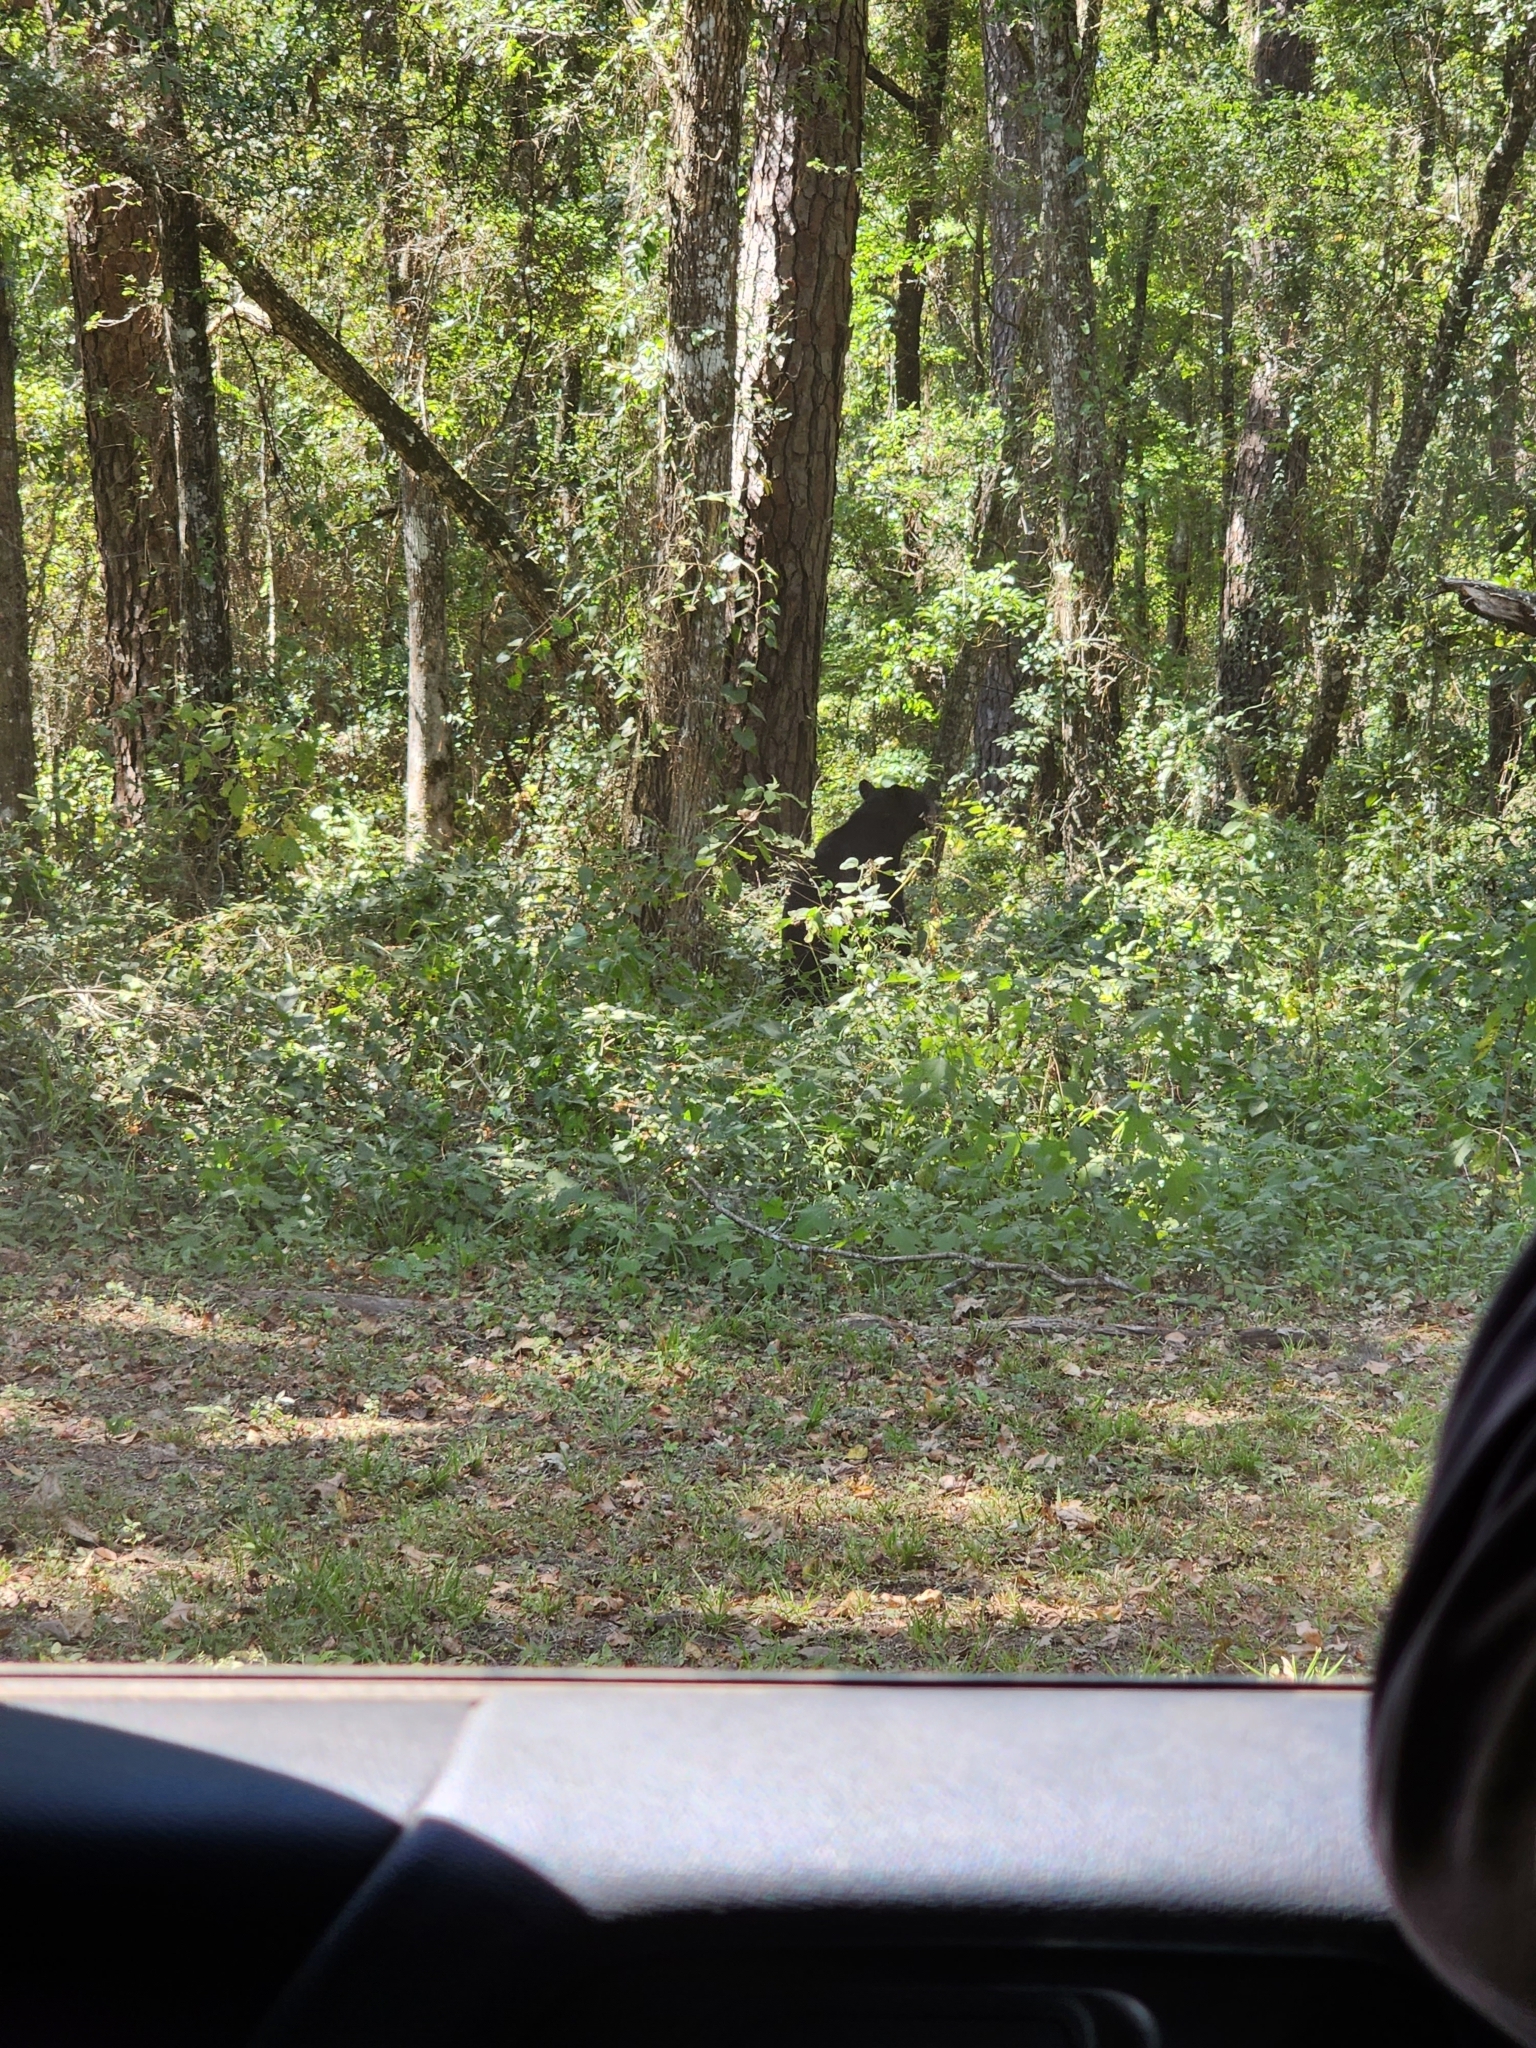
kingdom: Animalia
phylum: Chordata
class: Mammalia
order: Carnivora
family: Ursidae
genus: Ursus
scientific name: Ursus americanus
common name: American black bear
